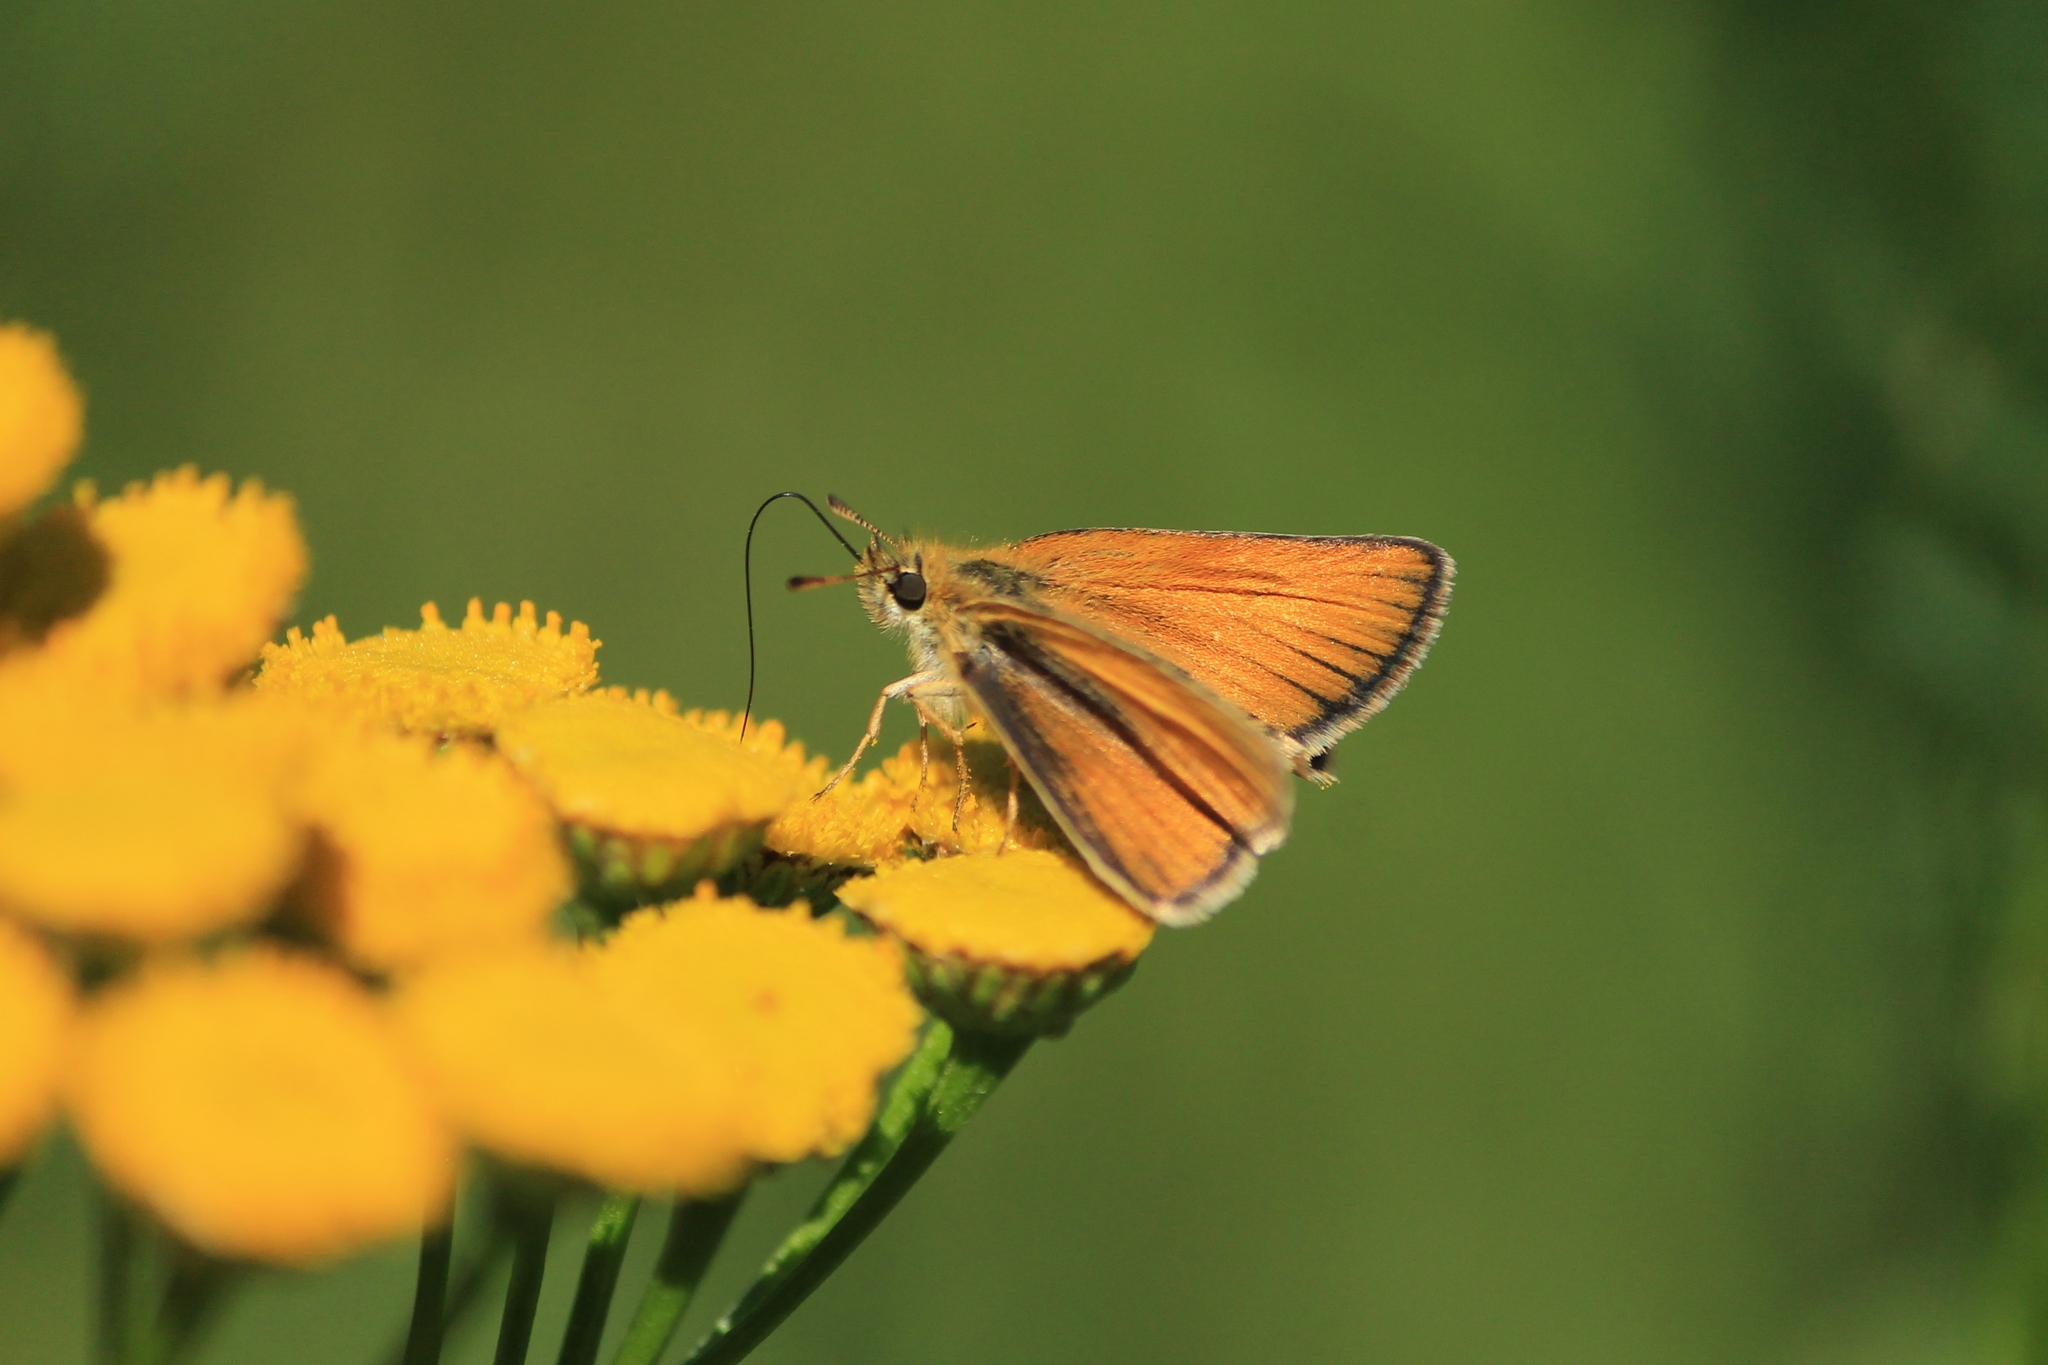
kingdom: Animalia
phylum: Arthropoda
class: Insecta
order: Lepidoptera
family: Hesperiidae
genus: Thymelicus
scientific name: Thymelicus lineola
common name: Essex skipper
